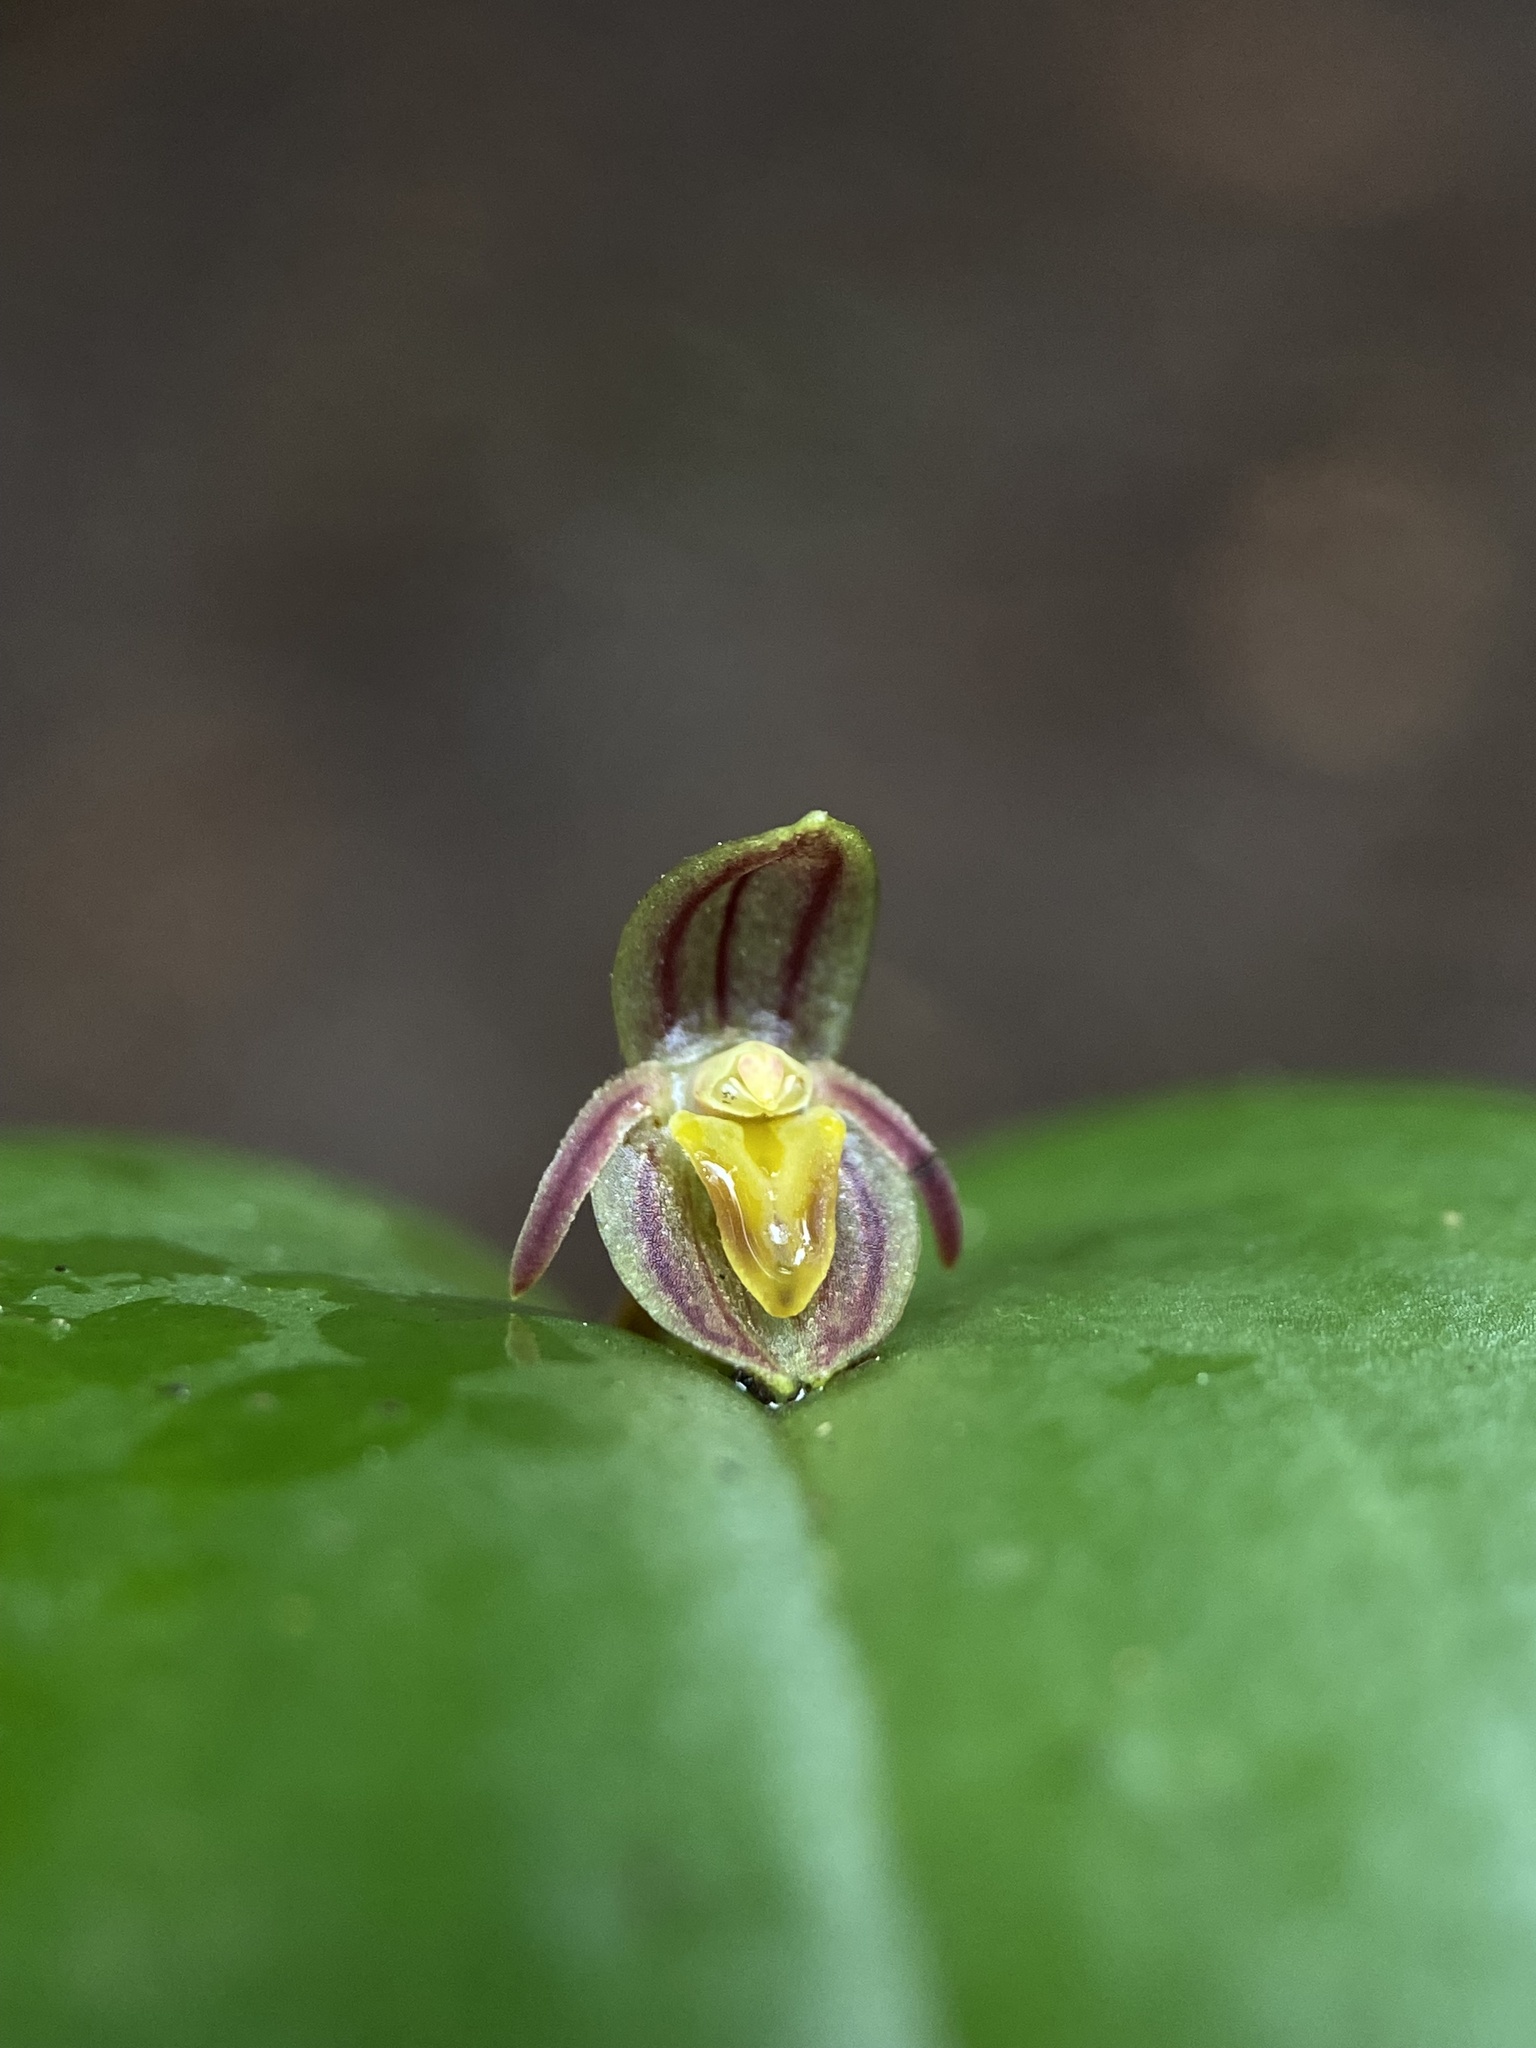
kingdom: Plantae
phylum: Tracheophyta
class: Liliopsida
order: Asparagales
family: Orchidaceae
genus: Pleurothallis
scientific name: Pleurothallis matudana
